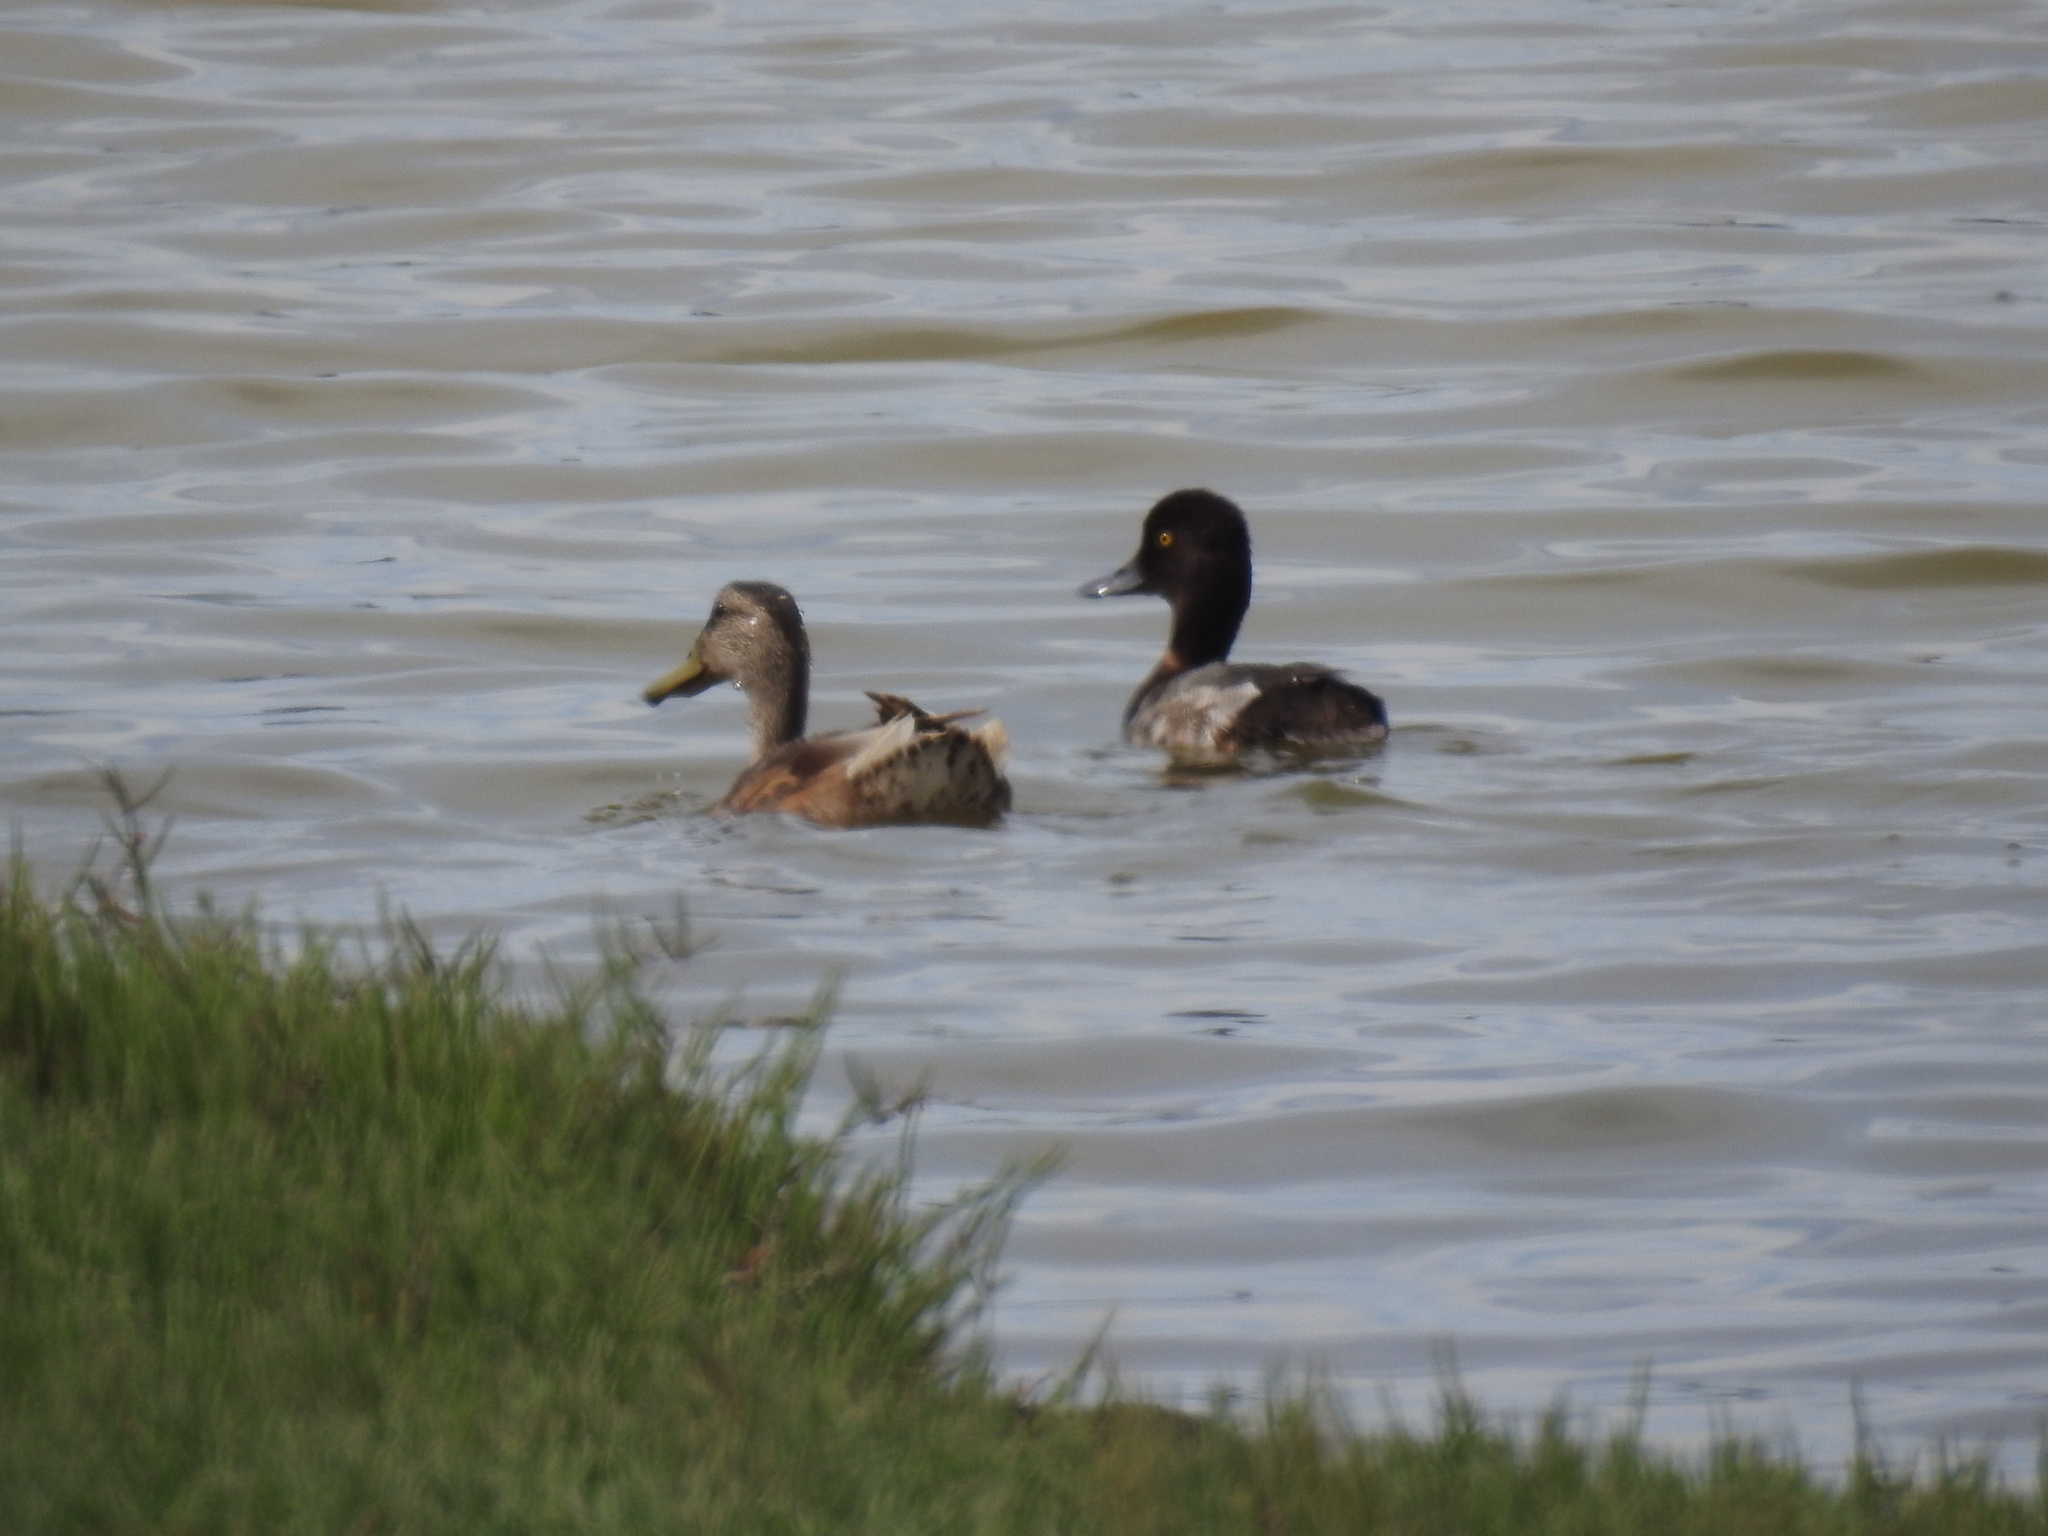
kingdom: Animalia
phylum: Chordata
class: Aves
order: Anseriformes
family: Anatidae
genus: Aythya
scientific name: Aythya affinis
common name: Lesser scaup
